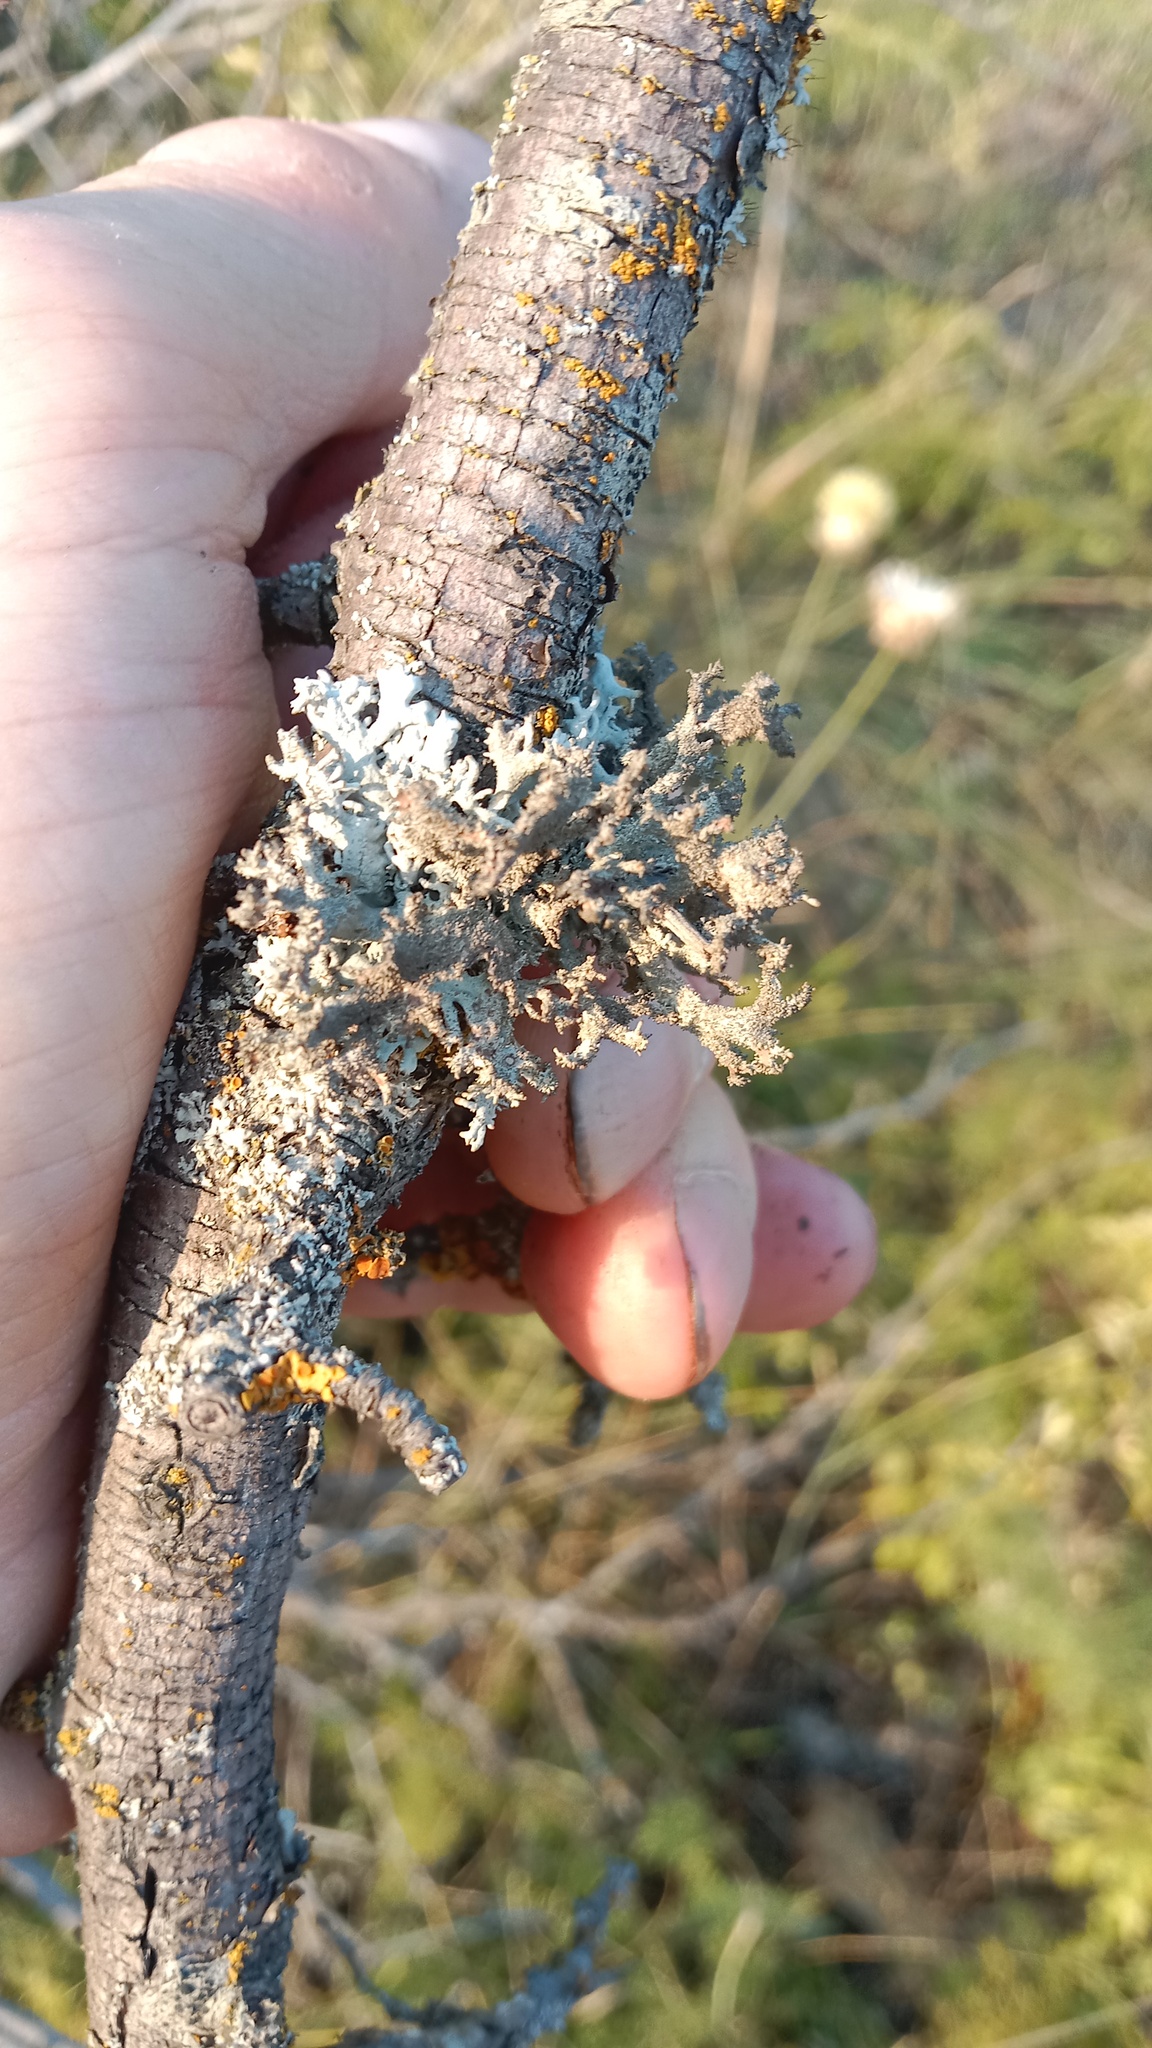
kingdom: Fungi
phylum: Ascomycota
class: Lecanoromycetes
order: Lecanorales
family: Parmeliaceae
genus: Pseudevernia
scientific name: Pseudevernia furfuracea
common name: Tree moss
